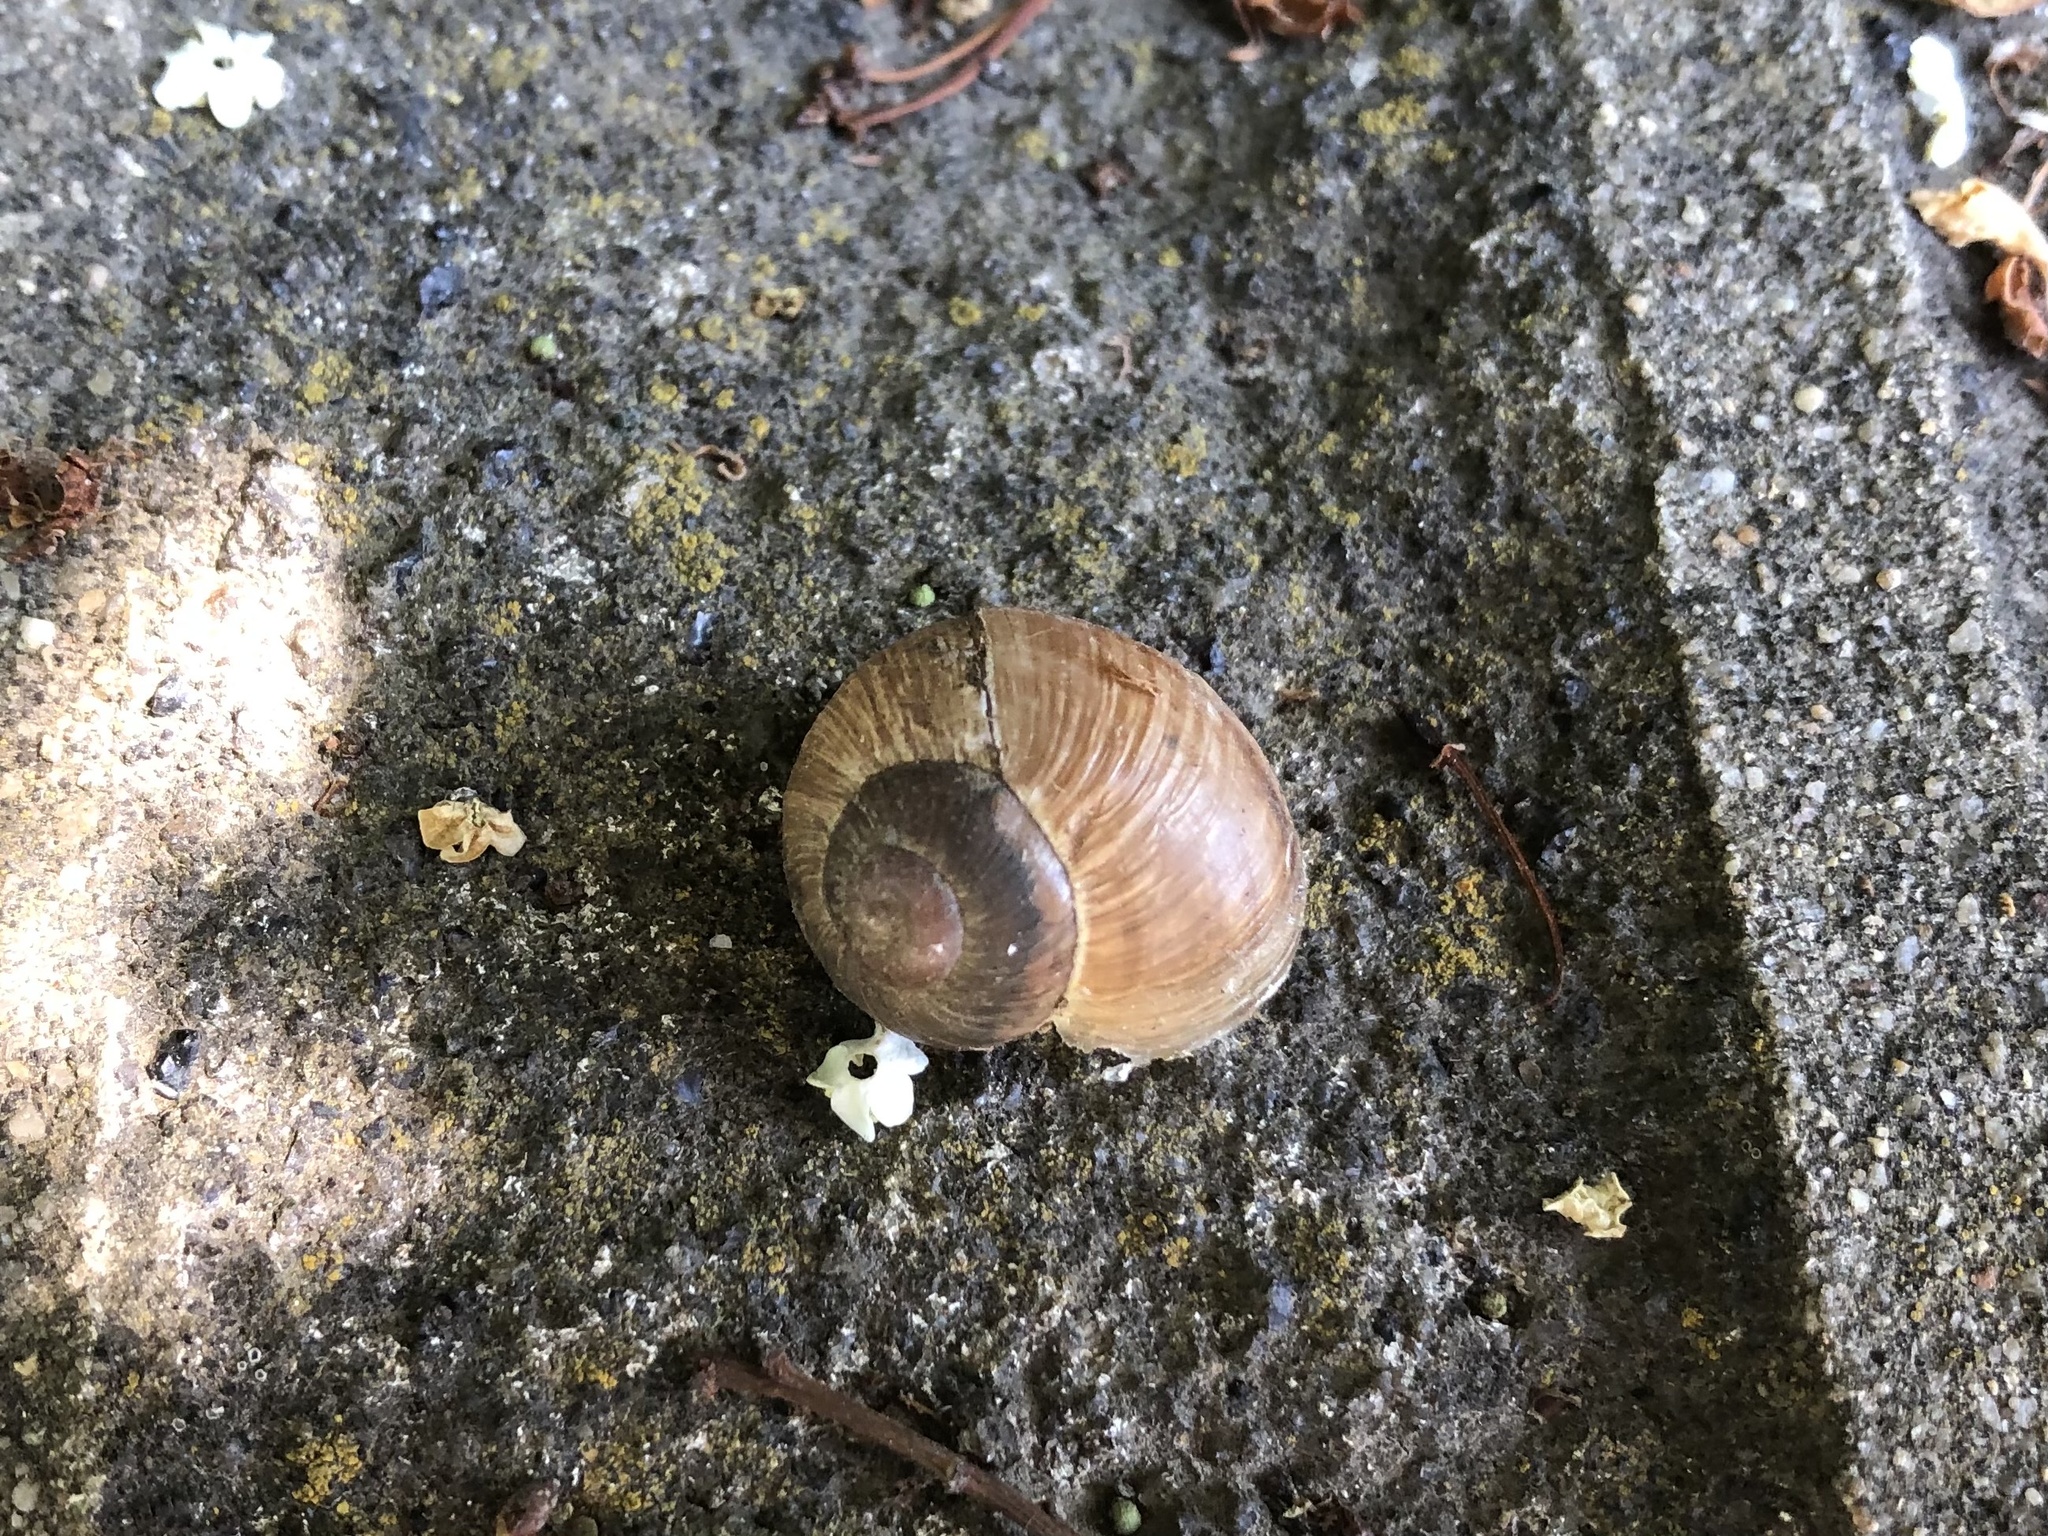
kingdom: Animalia
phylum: Mollusca
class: Gastropoda
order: Stylommatophora
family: Helicidae
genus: Helix
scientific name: Helix pomatia
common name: Roman snail
